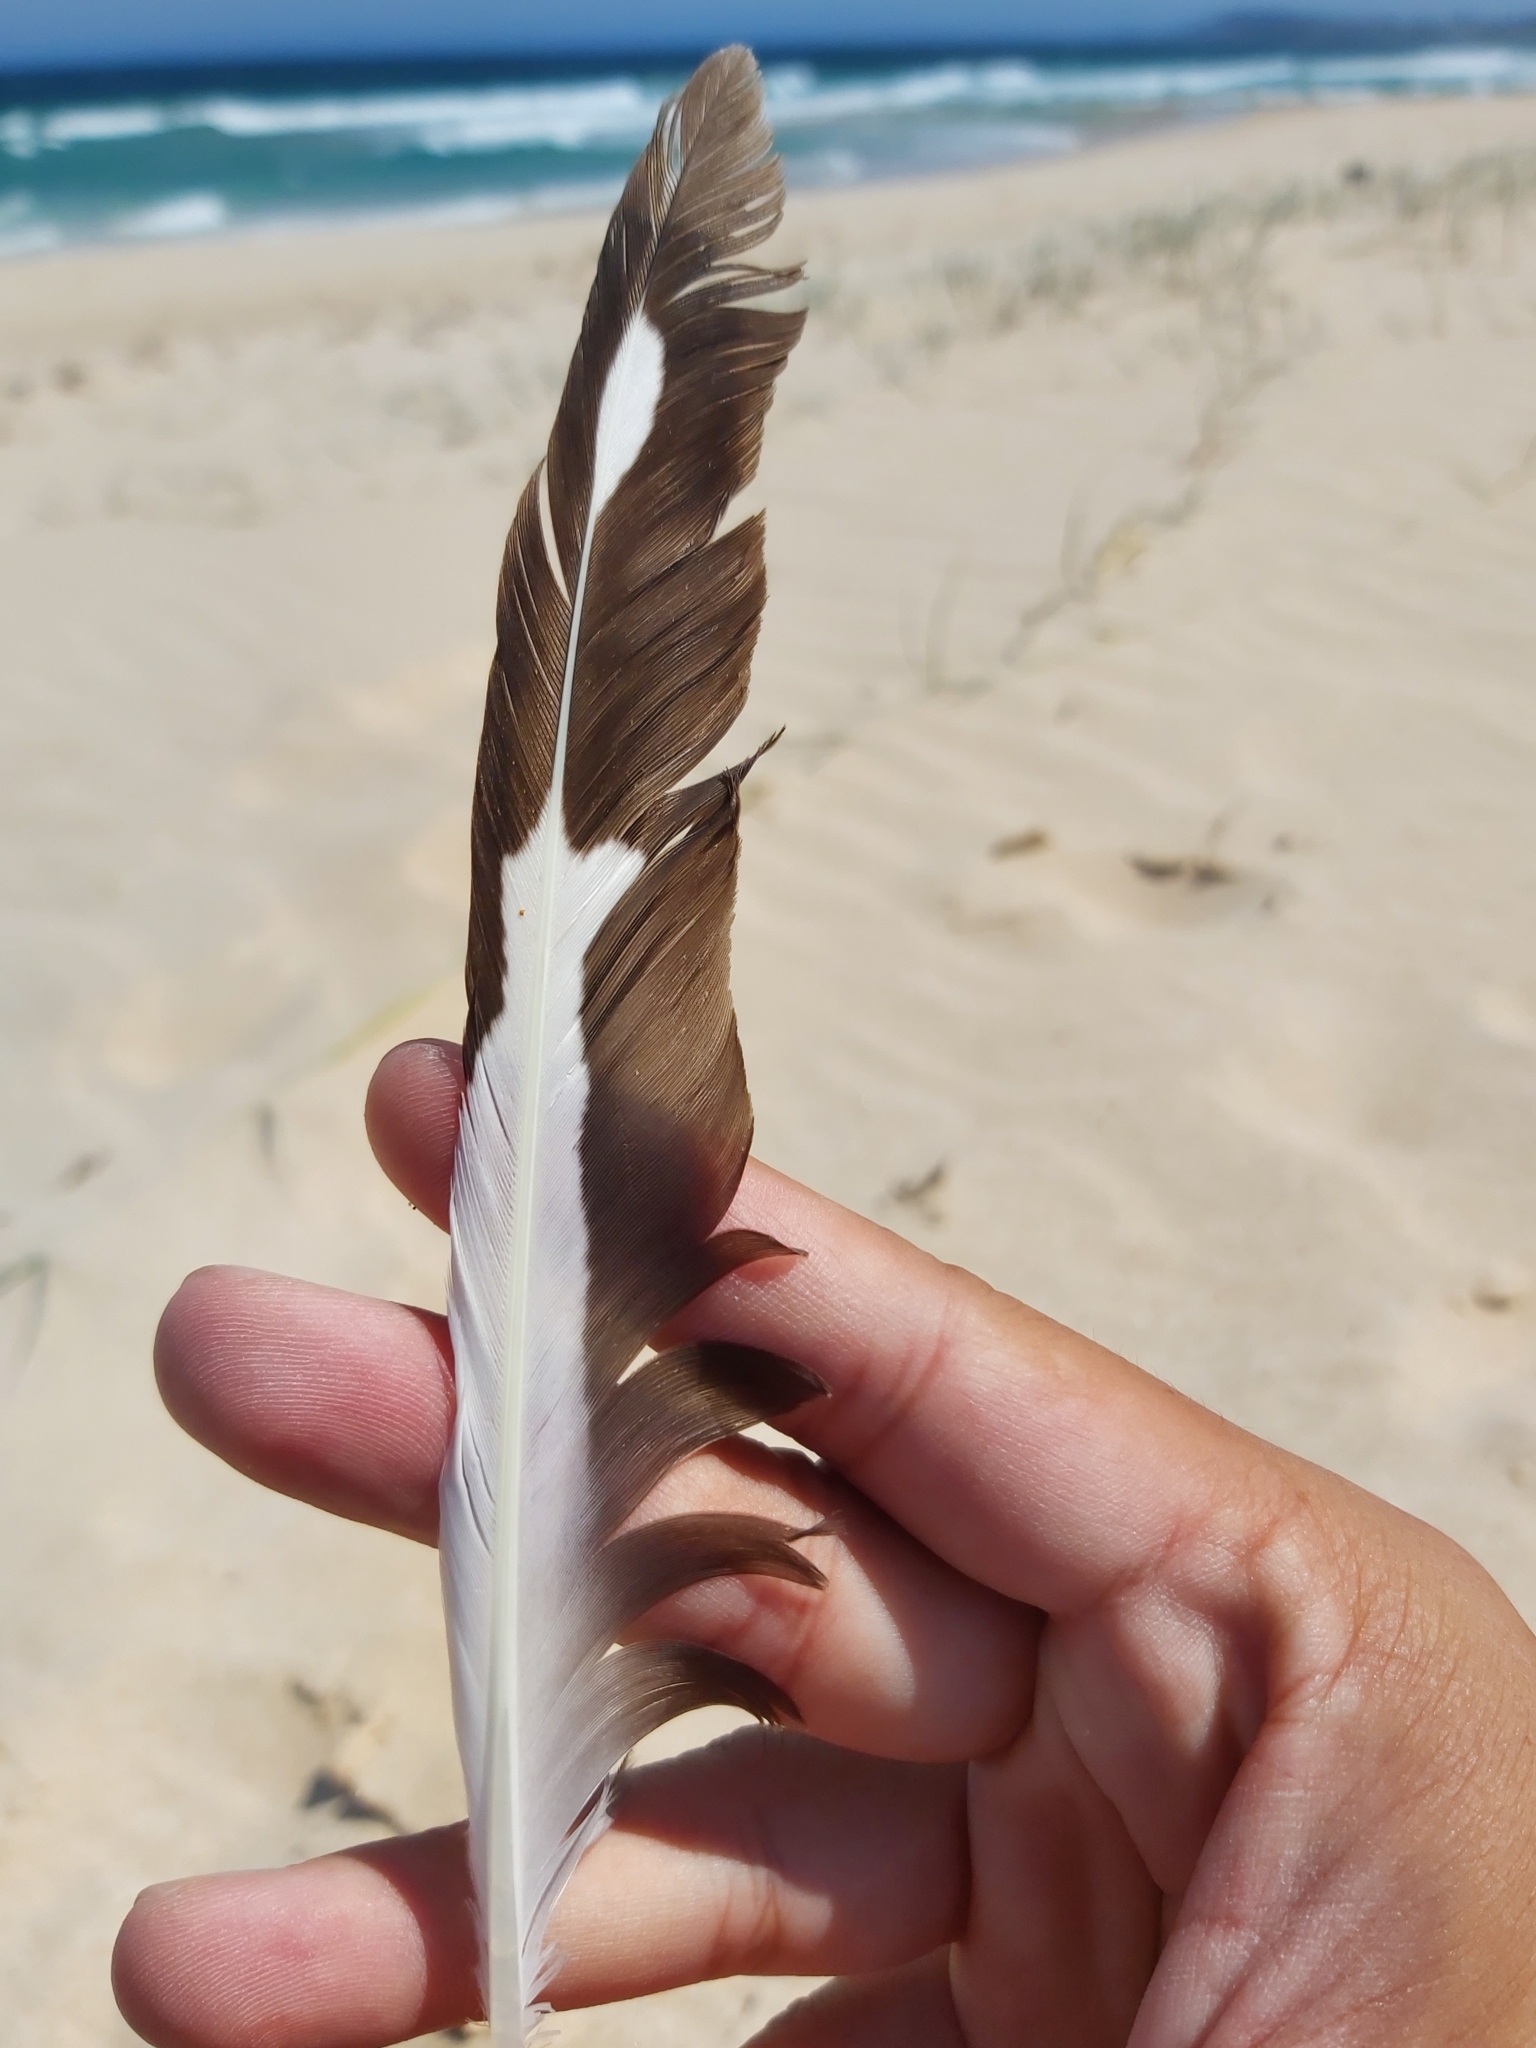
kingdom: Animalia
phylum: Chordata
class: Aves
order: Charadriiformes
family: Laridae
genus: Chroicocephalus
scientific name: Chroicocephalus novaehollandiae
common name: Silver gull
